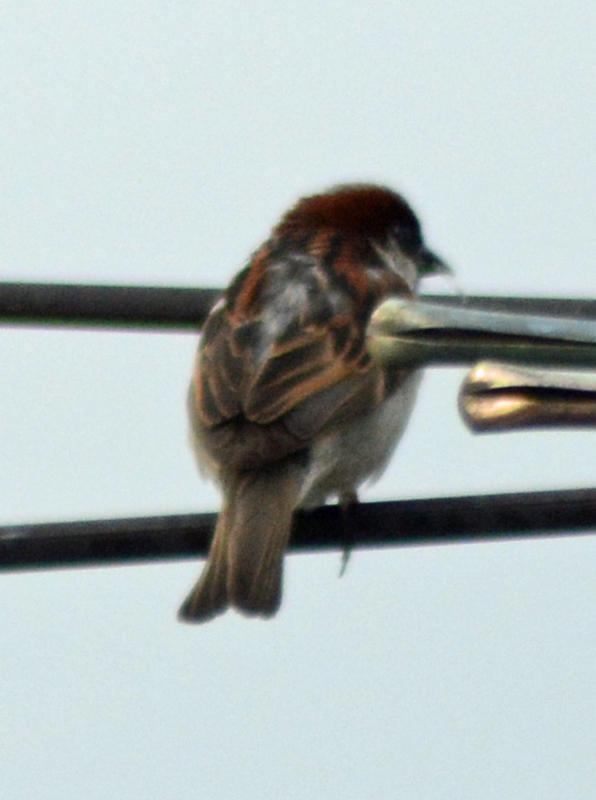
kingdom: Animalia
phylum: Chordata
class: Aves
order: Passeriformes
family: Passeridae
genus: Passer
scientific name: Passer domesticus
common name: House sparrow
